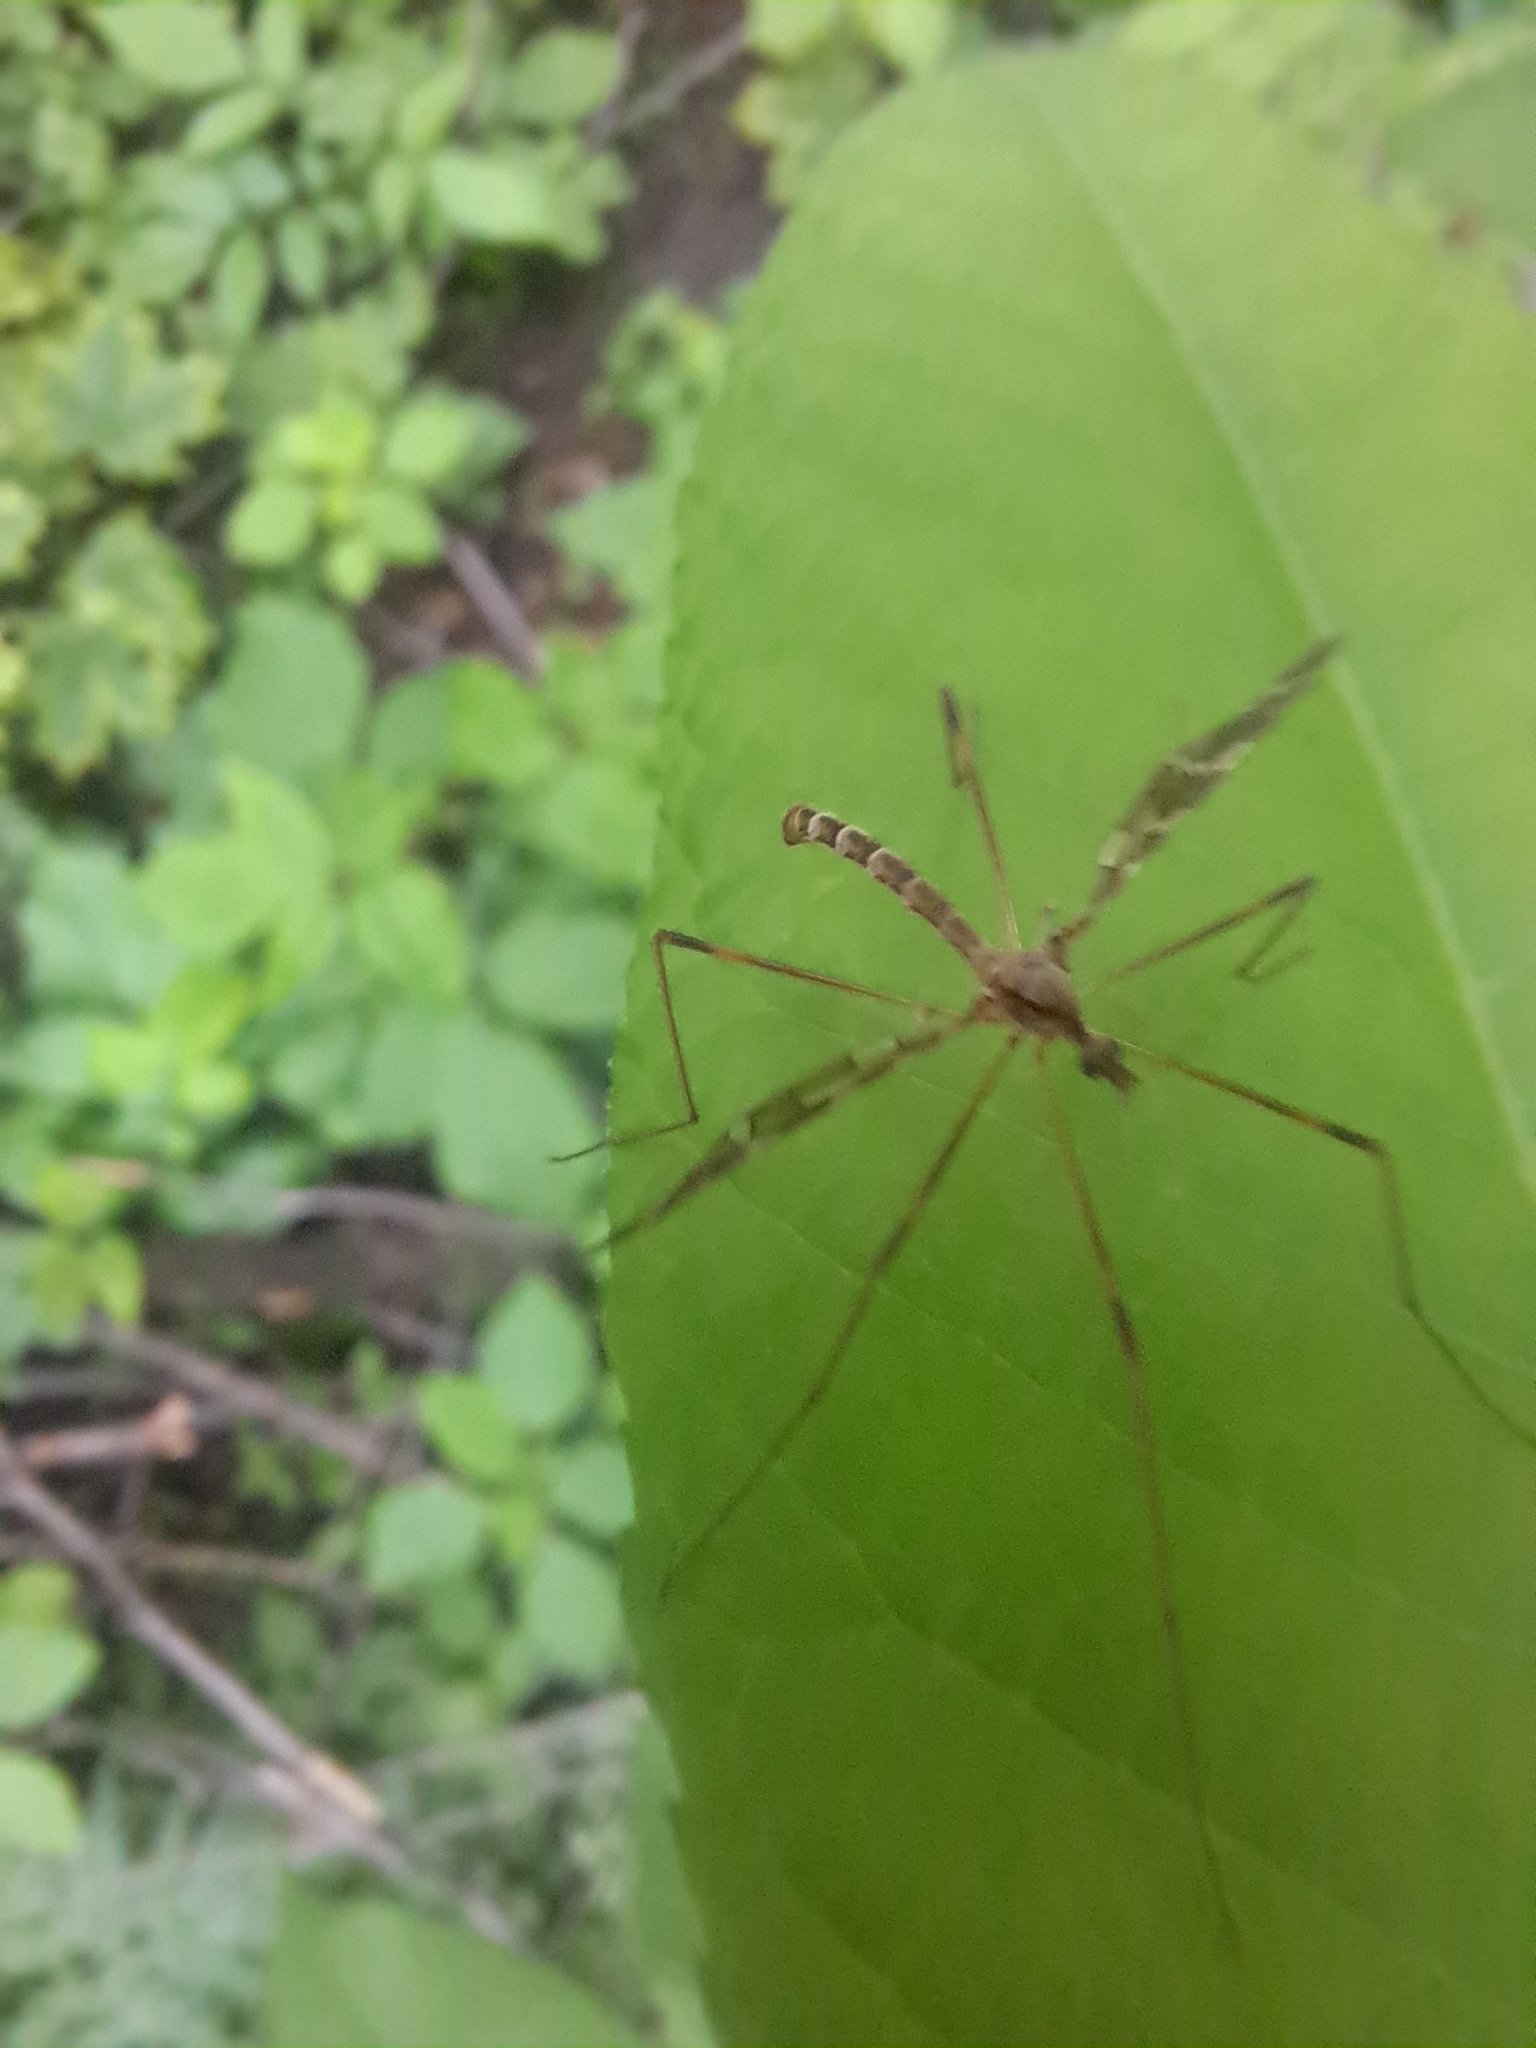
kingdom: Animalia
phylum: Arthropoda
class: Insecta
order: Diptera
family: Limoniidae
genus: Epiphragma
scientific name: Epiphragma fasciapenne
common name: Band-winged crane fly
